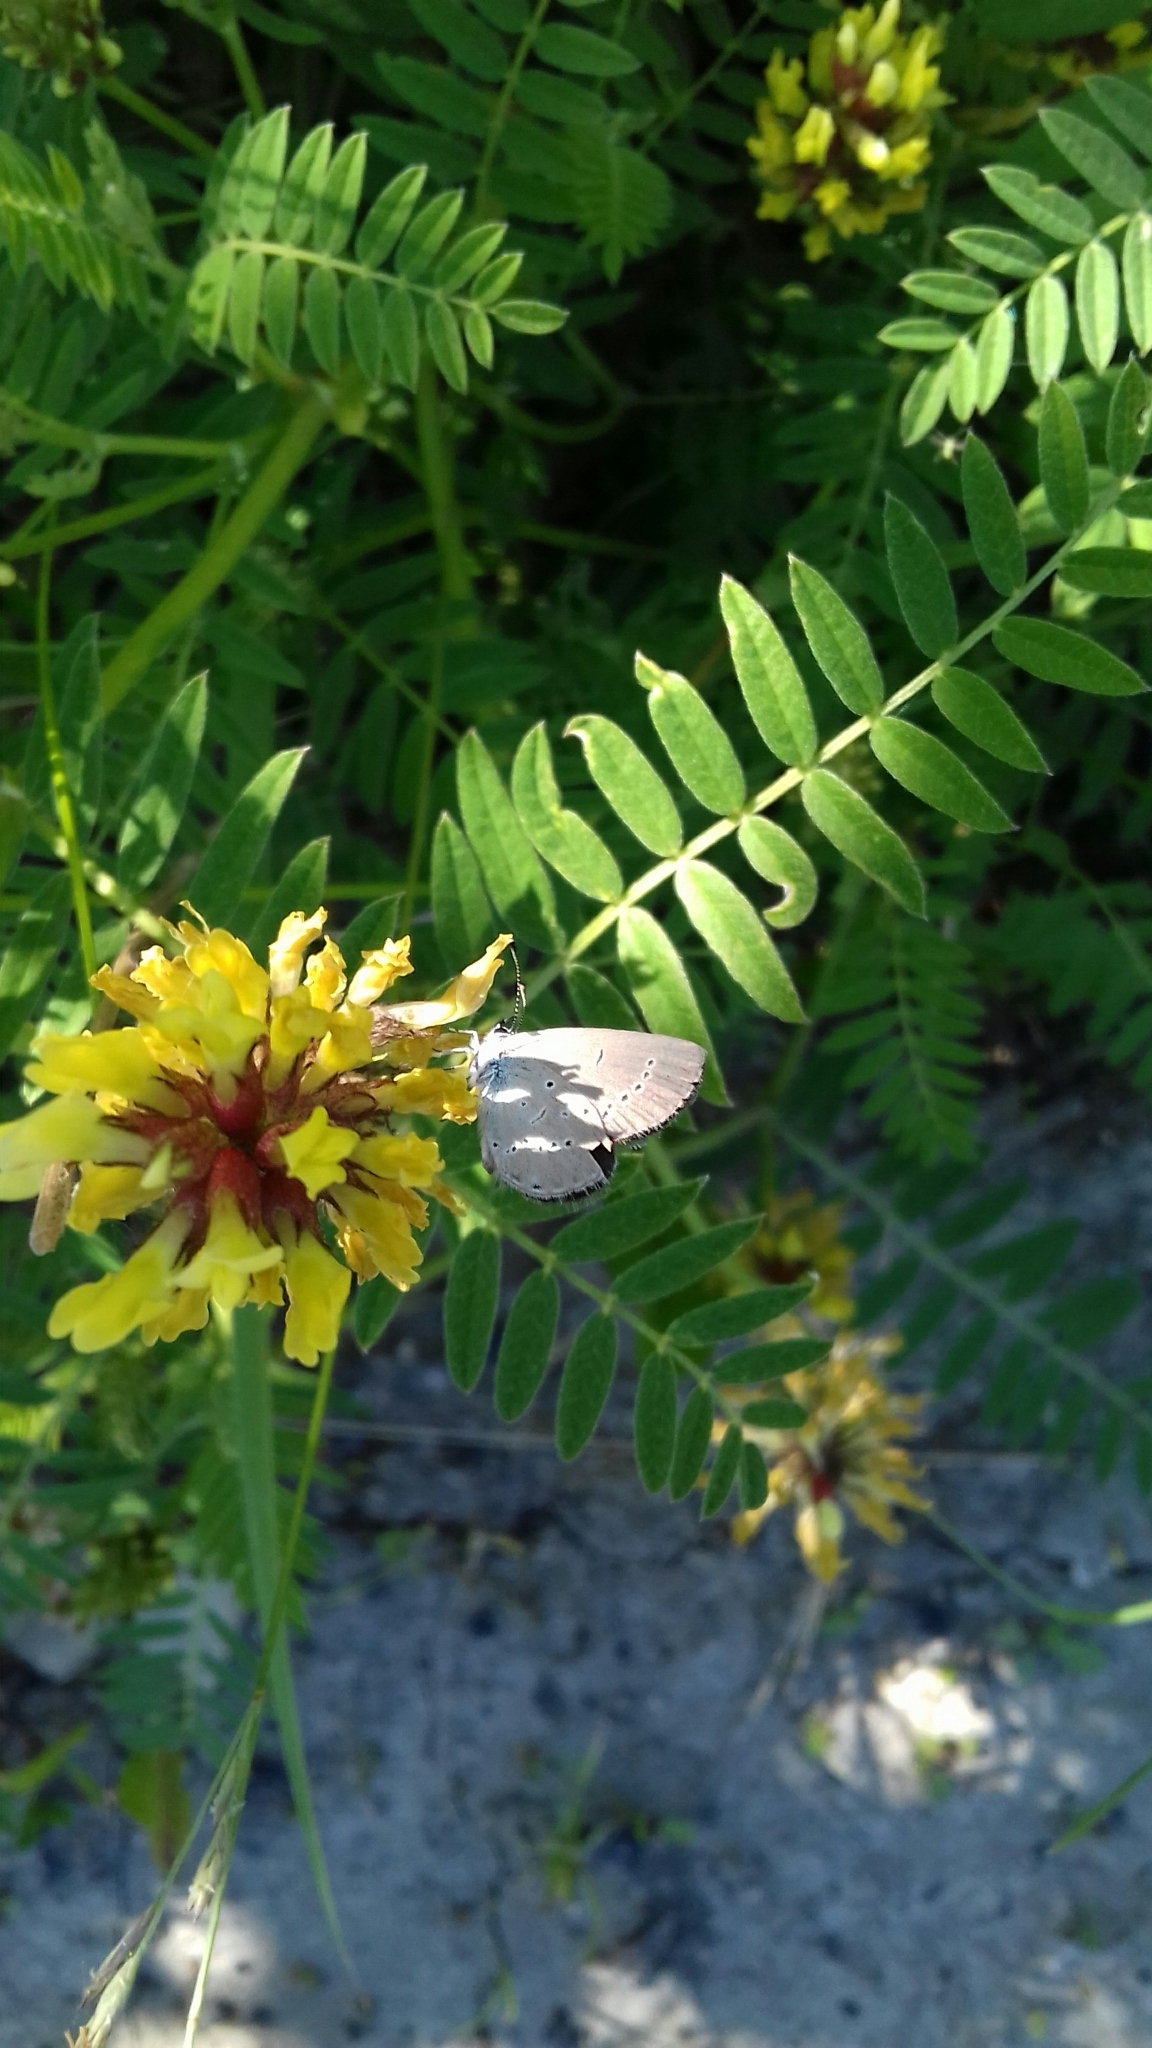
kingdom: Animalia
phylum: Arthropoda
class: Insecta
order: Lepidoptera
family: Lycaenidae
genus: Cupido
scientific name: Cupido minimus
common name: Small blue
